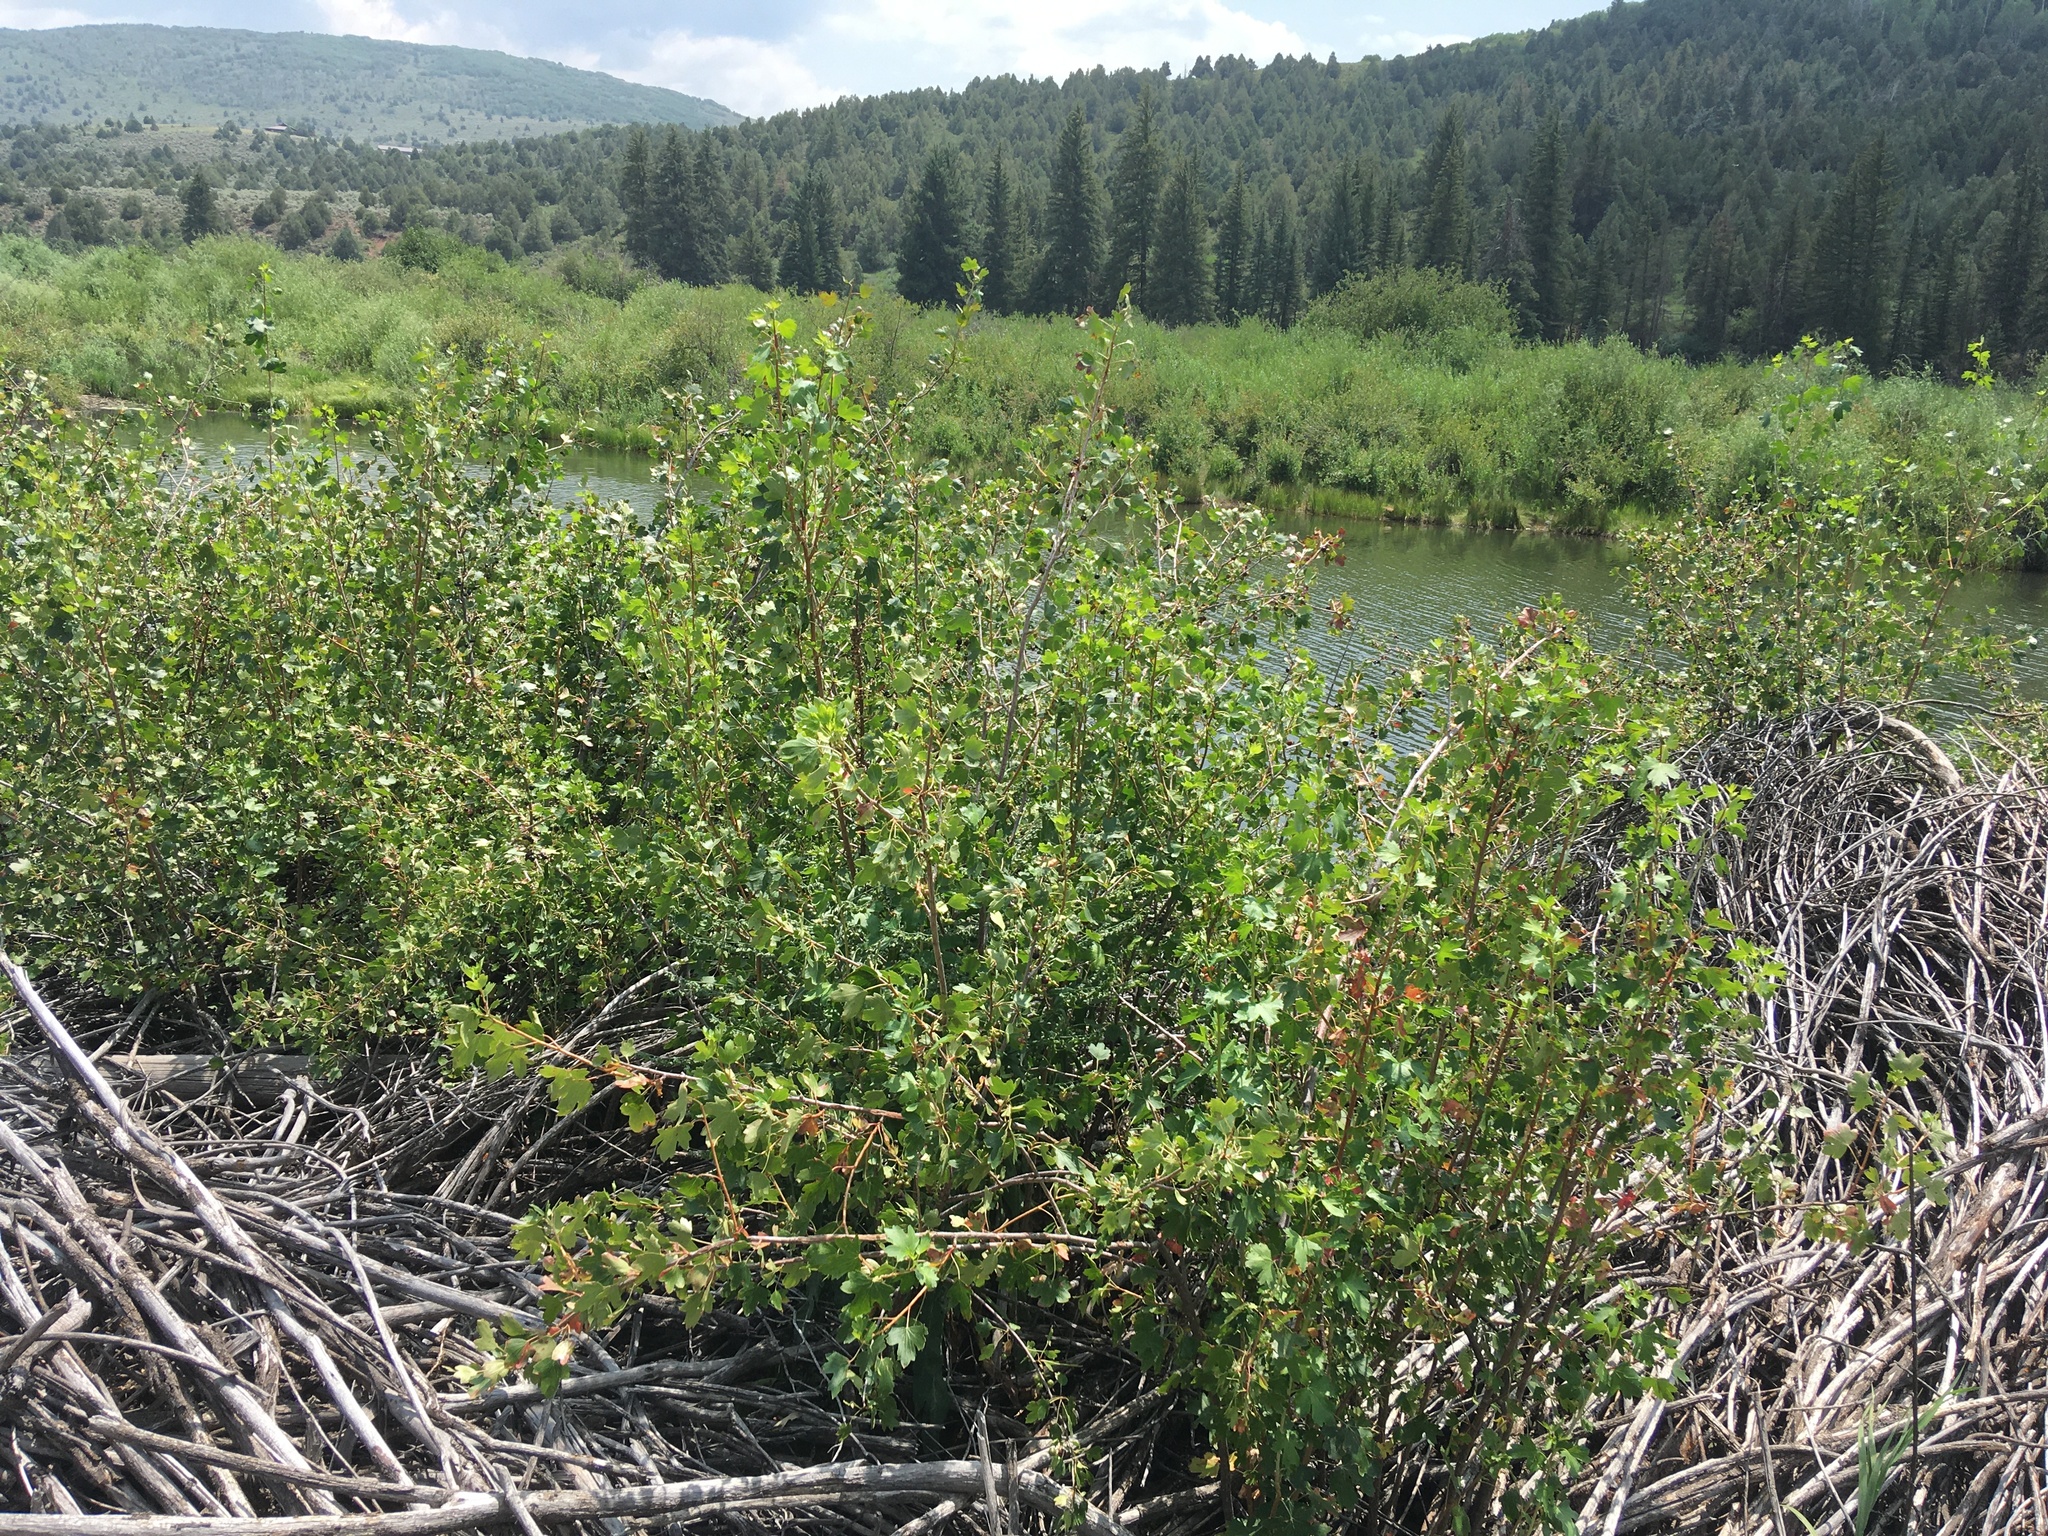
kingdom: Plantae
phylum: Tracheophyta
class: Magnoliopsida
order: Saxifragales
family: Grossulariaceae
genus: Ribes
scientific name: Ribes aureum
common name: Golden currant
